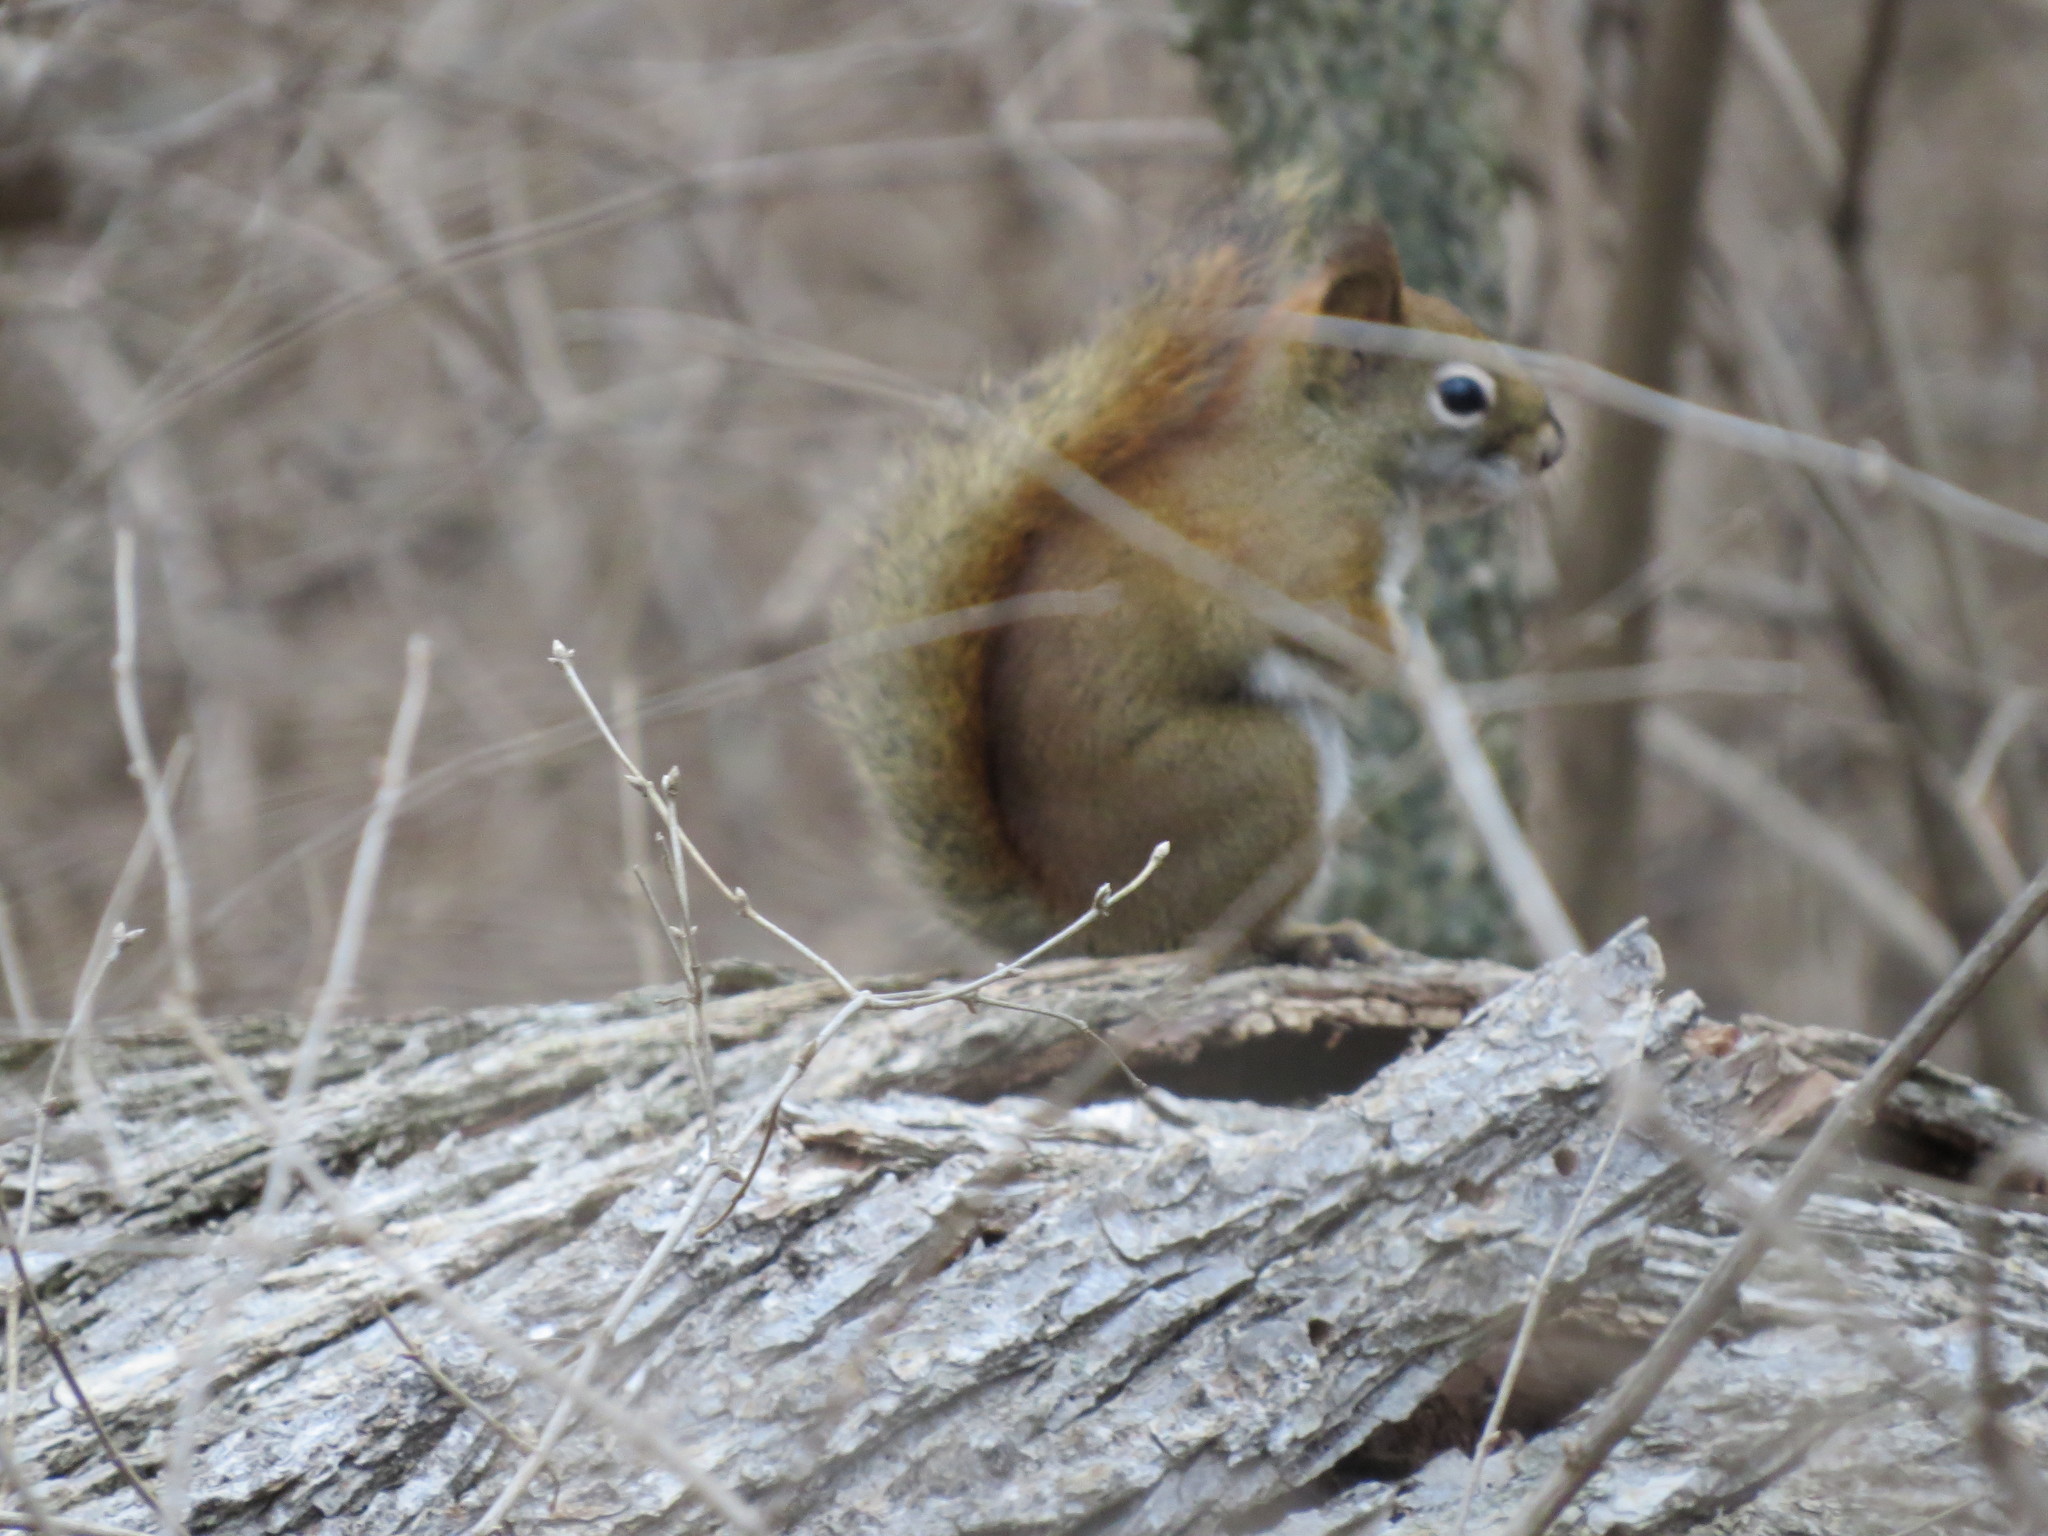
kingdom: Animalia
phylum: Chordata
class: Mammalia
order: Rodentia
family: Sciuridae
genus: Tamiasciurus
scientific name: Tamiasciurus hudsonicus
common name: Red squirrel
